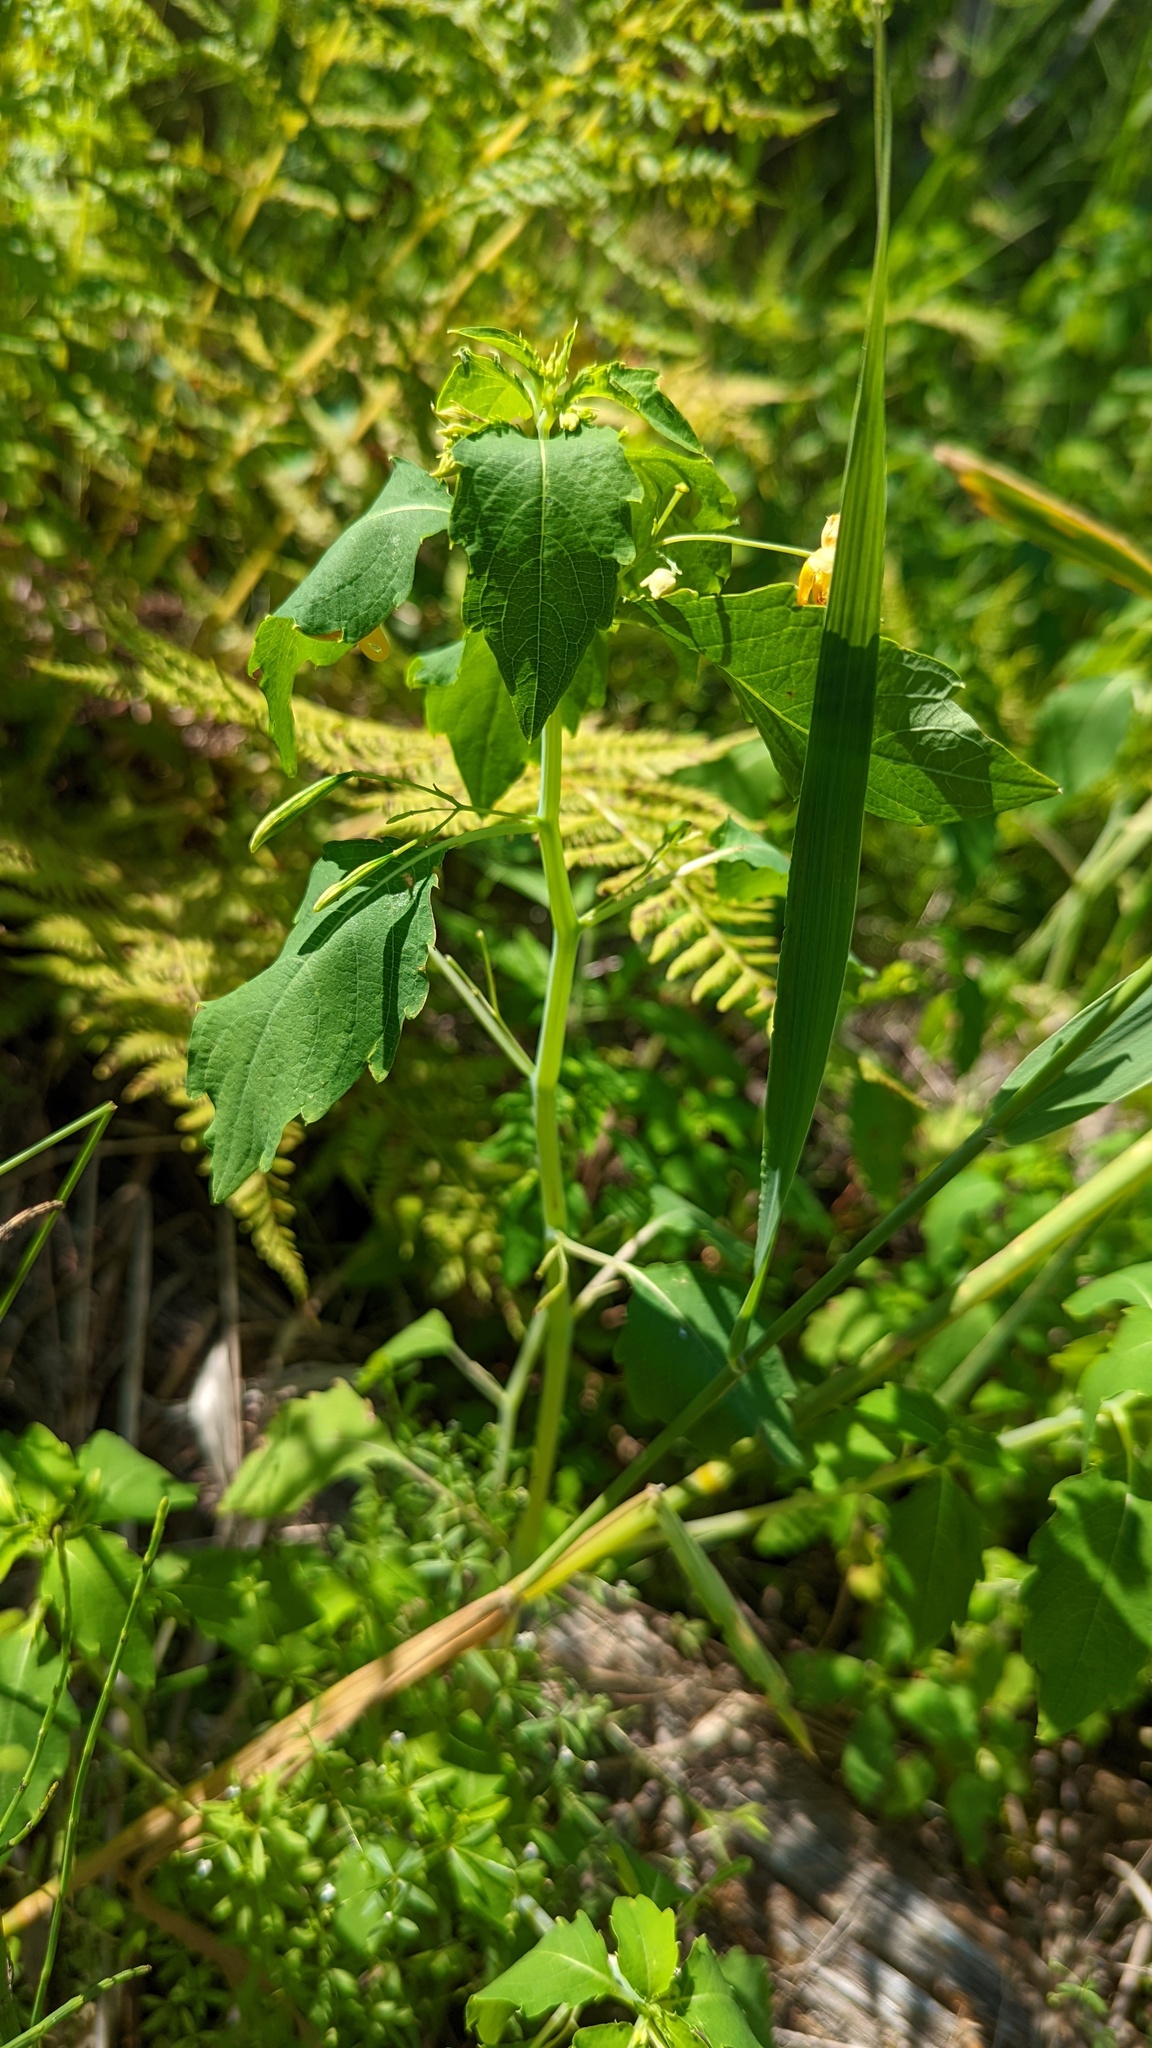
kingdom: Plantae
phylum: Tracheophyta
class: Magnoliopsida
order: Ericales
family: Balsaminaceae
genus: Impatiens
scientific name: Impatiens capensis
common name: Orange balsam
